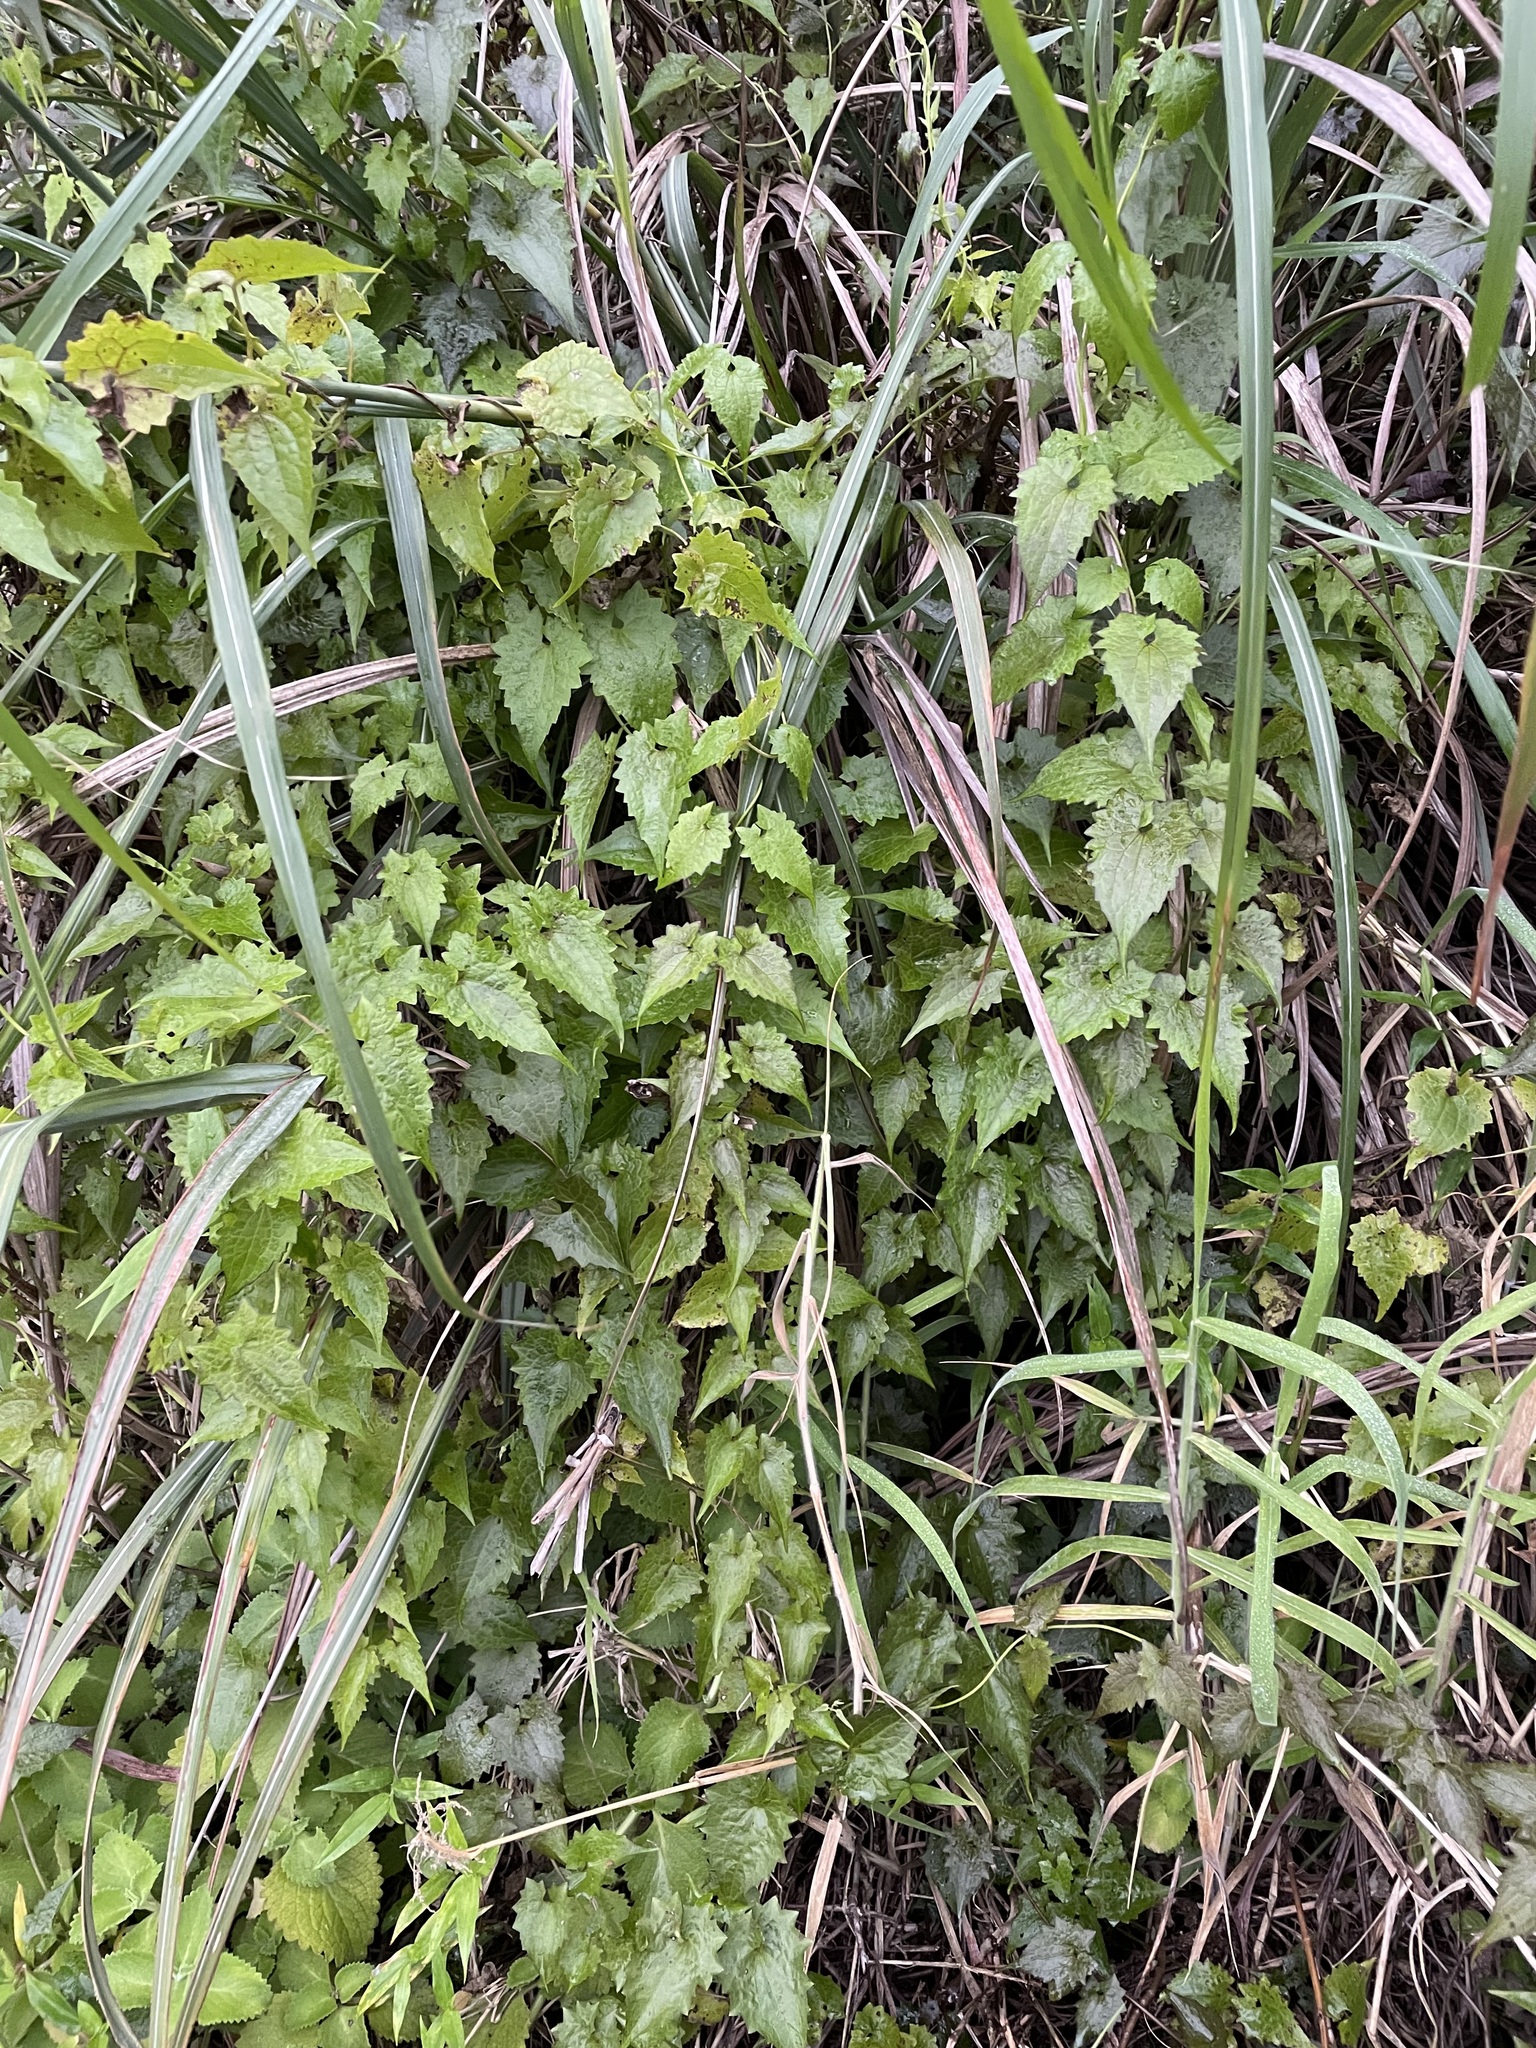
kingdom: Plantae
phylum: Tracheophyta
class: Magnoliopsida
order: Asterales
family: Asteraceae
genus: Mikania
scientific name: Mikania micrantha
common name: Mile-a-minute
